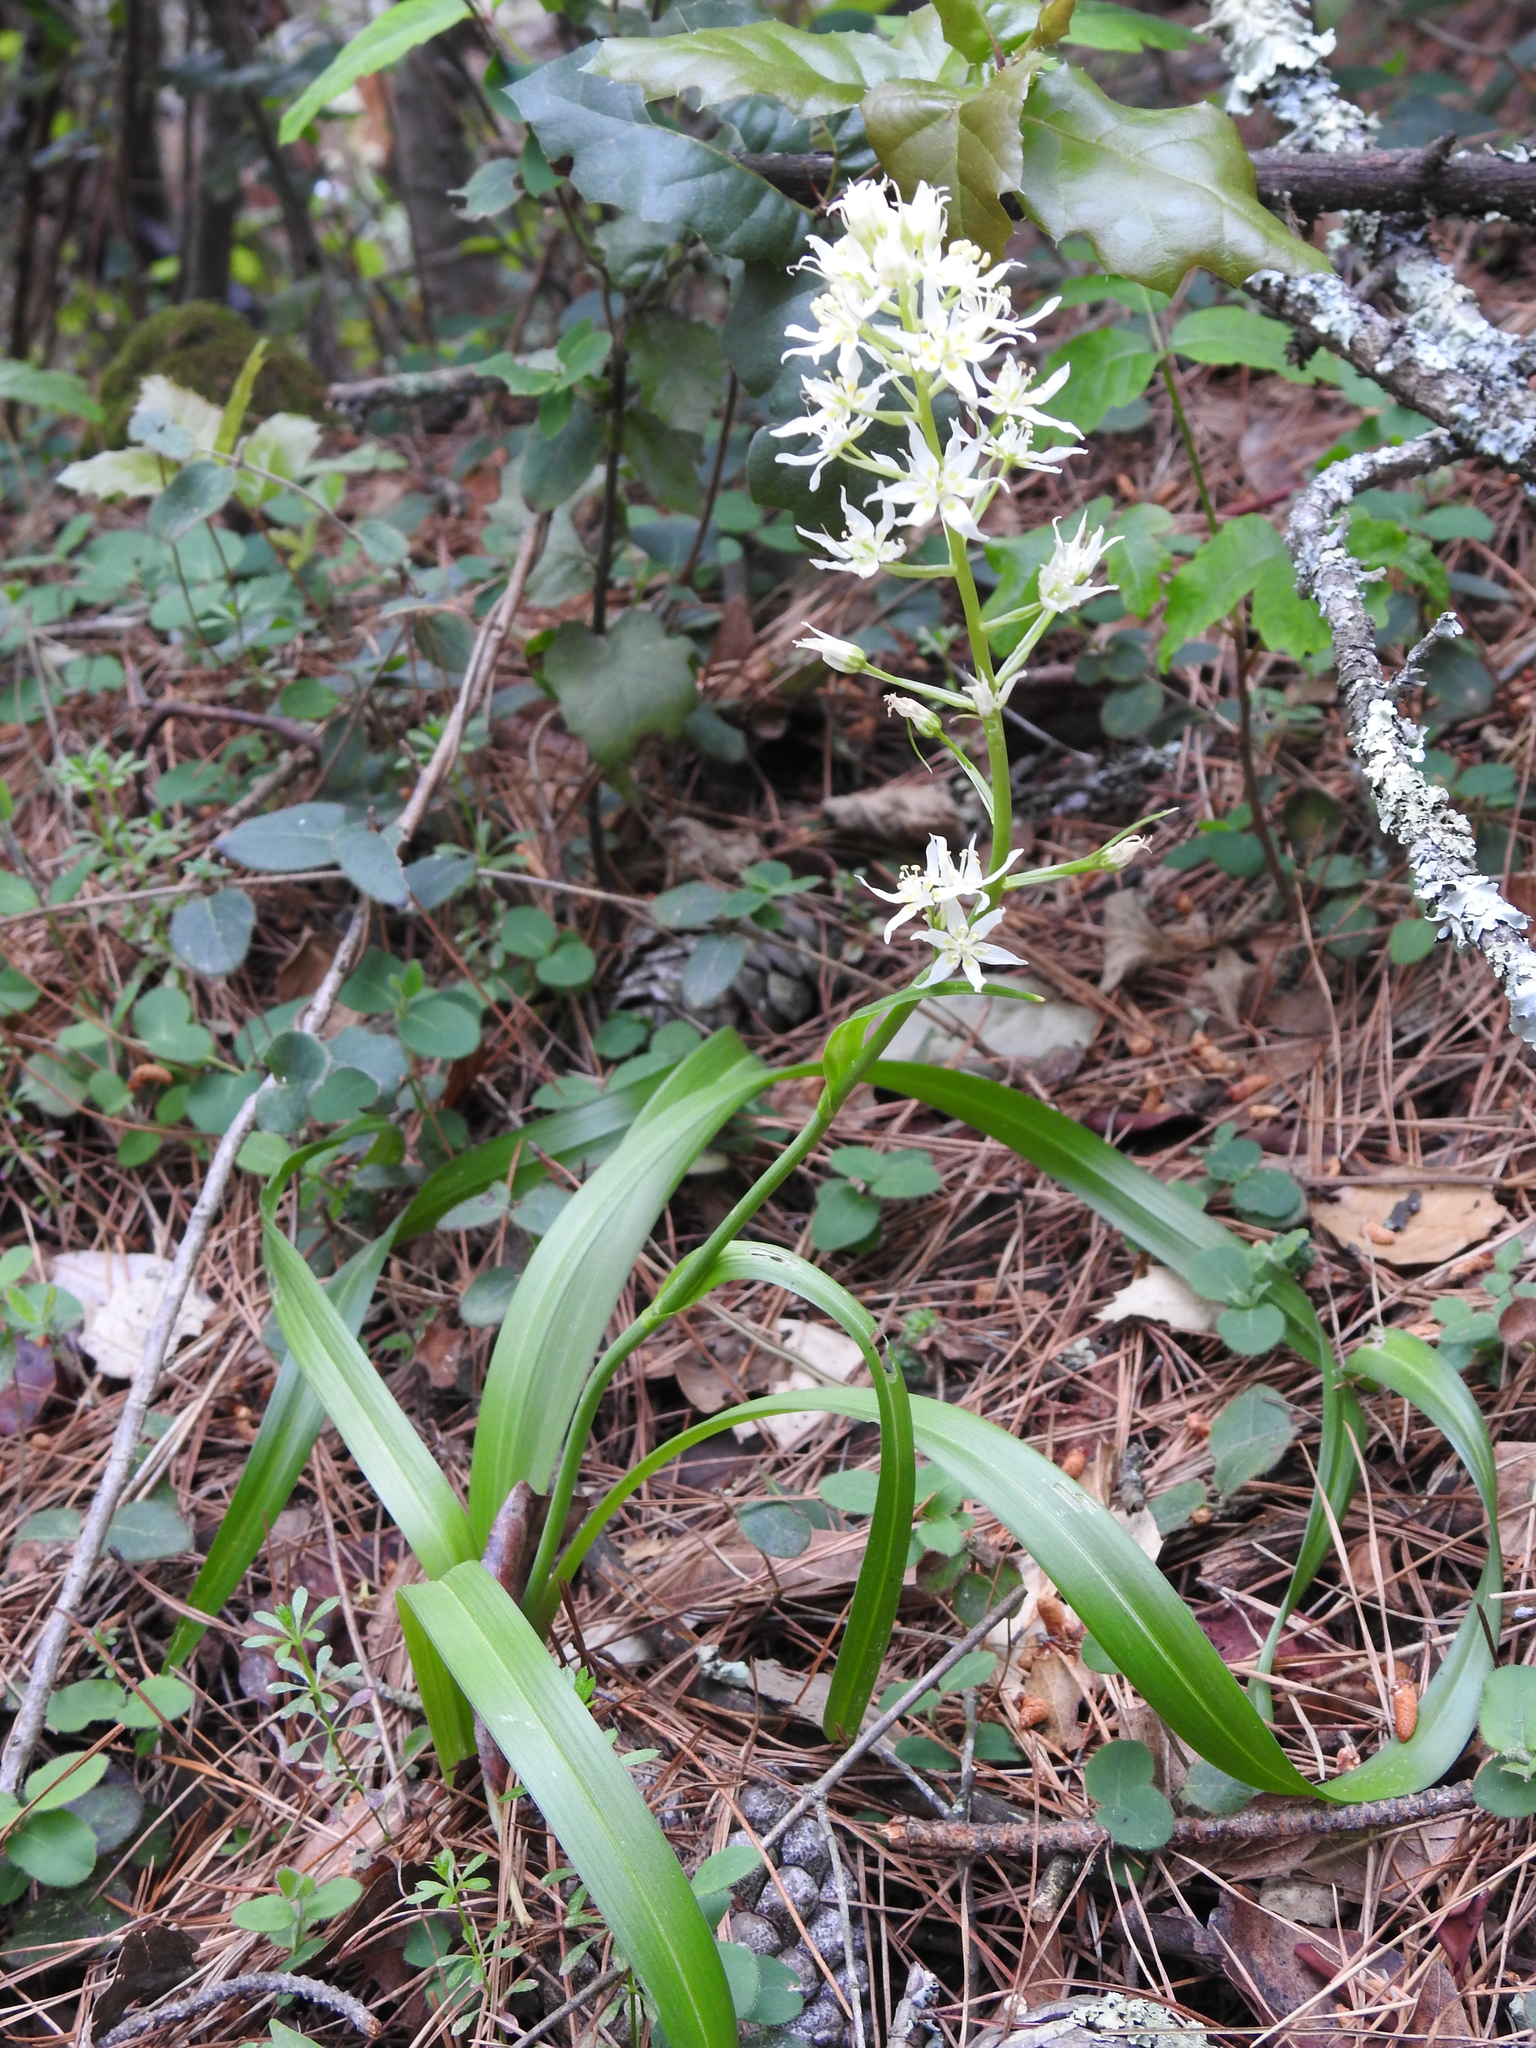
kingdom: Plantae
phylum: Tracheophyta
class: Liliopsida
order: Liliales
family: Melanthiaceae
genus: Toxicoscordion
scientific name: Toxicoscordion fremontii
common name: Fremont's death camas
